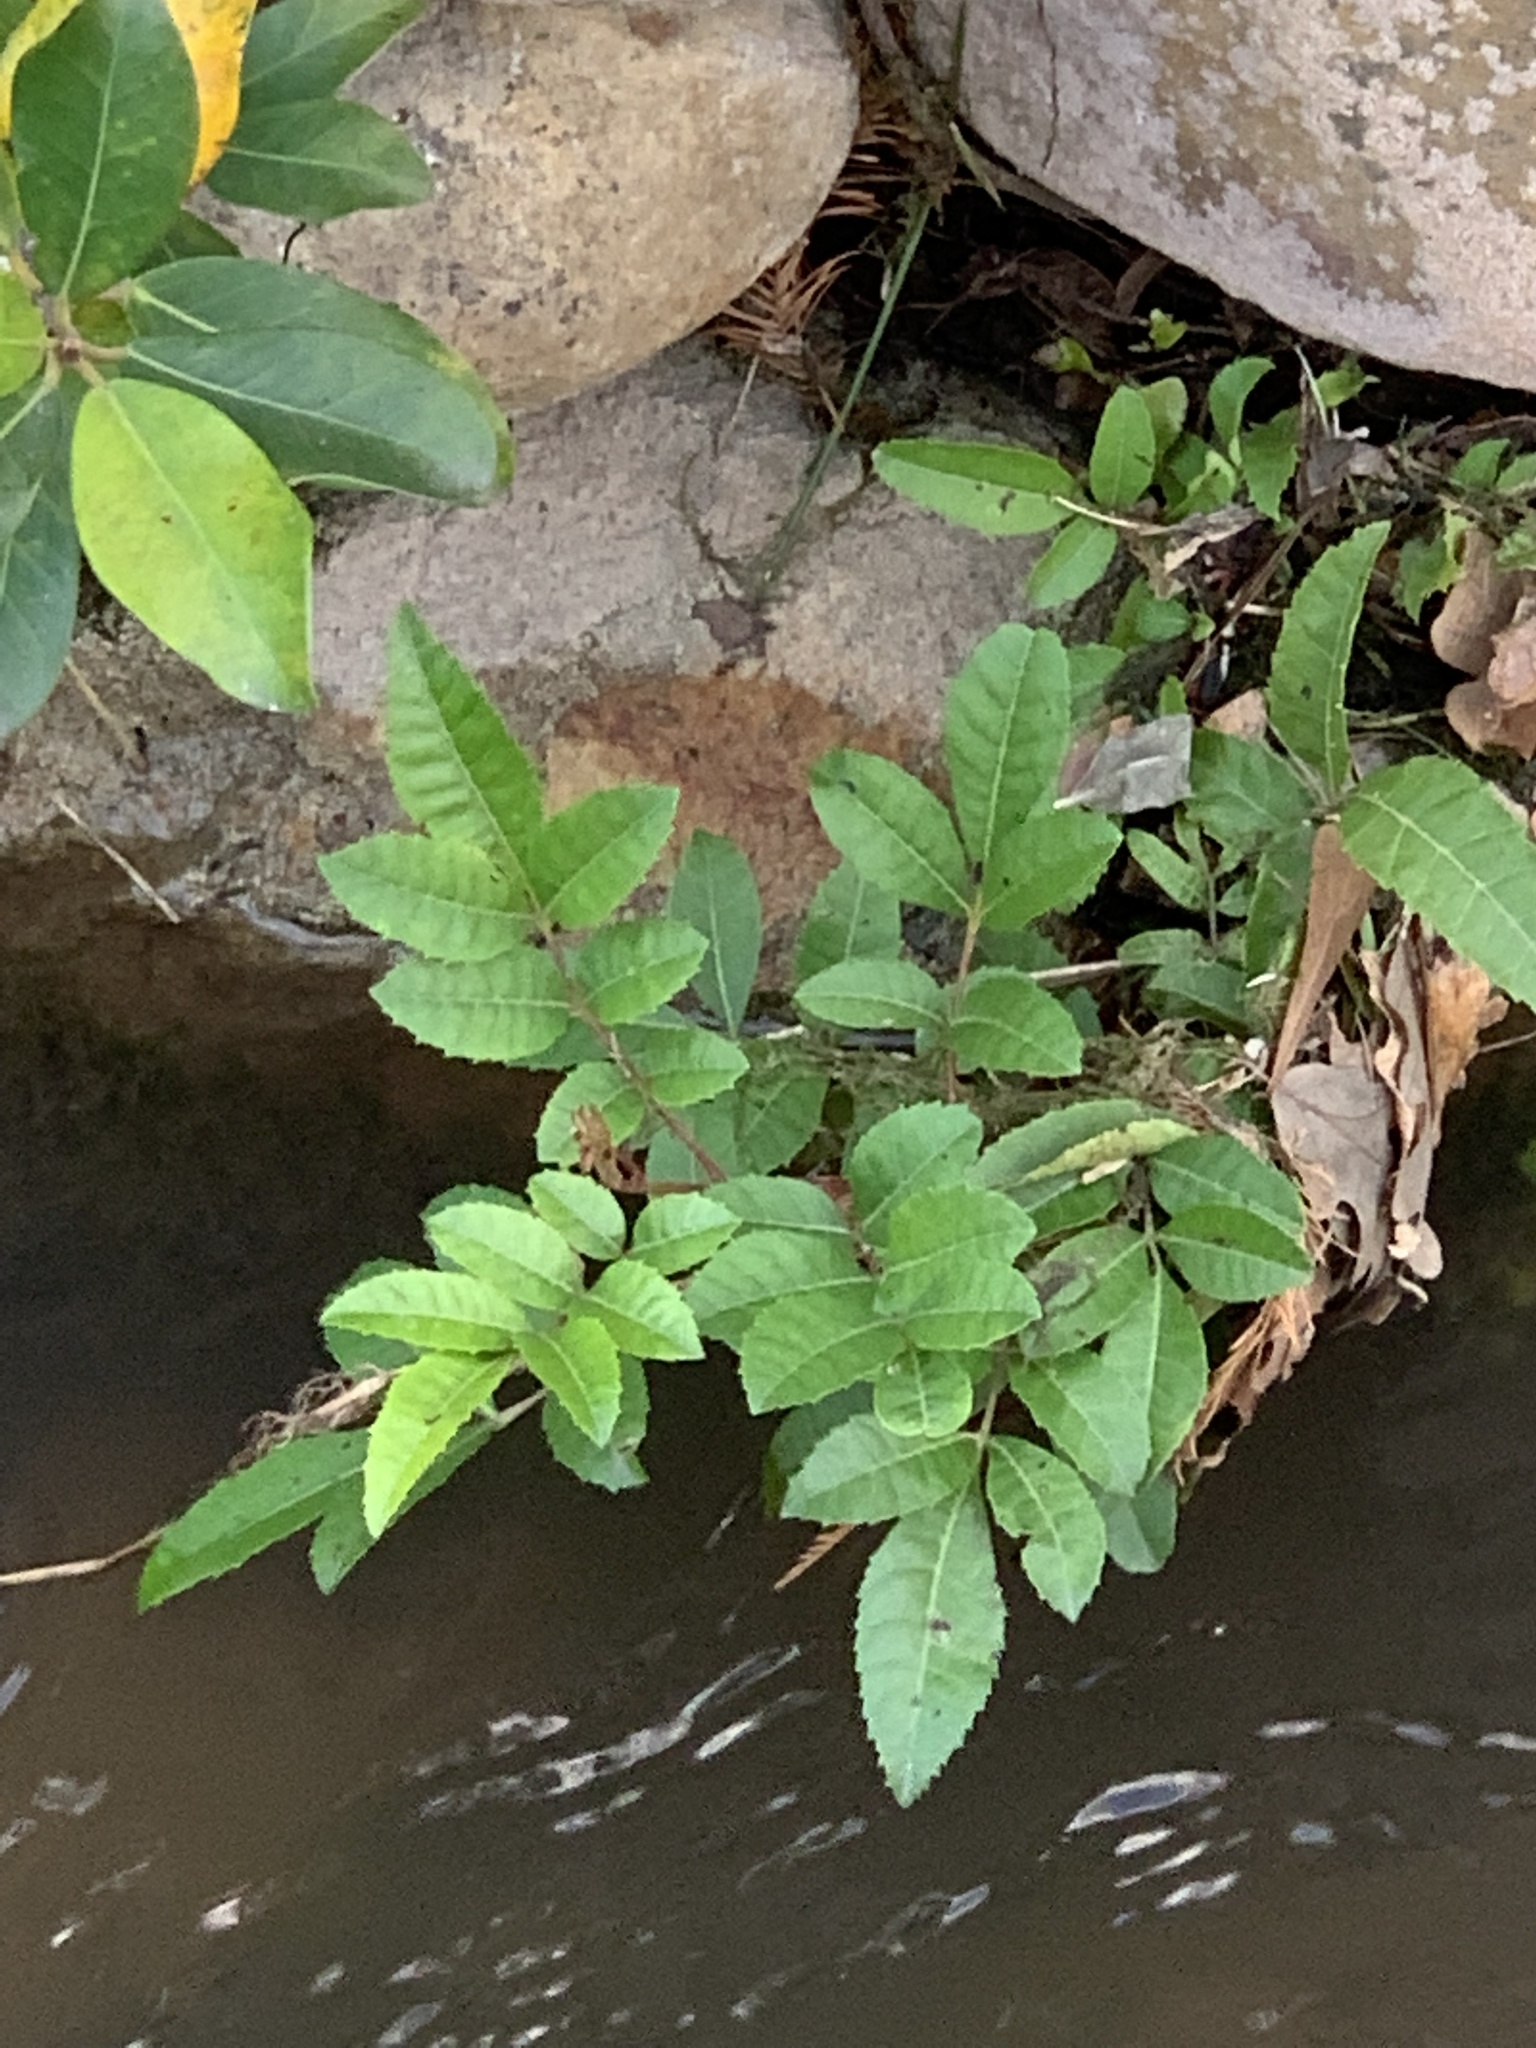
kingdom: Plantae
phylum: Tracheophyta
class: Magnoliopsida
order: Sapindales
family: Anacardiaceae
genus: Schinus
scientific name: Schinus terebinthifolia
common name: Brazilian peppertree
